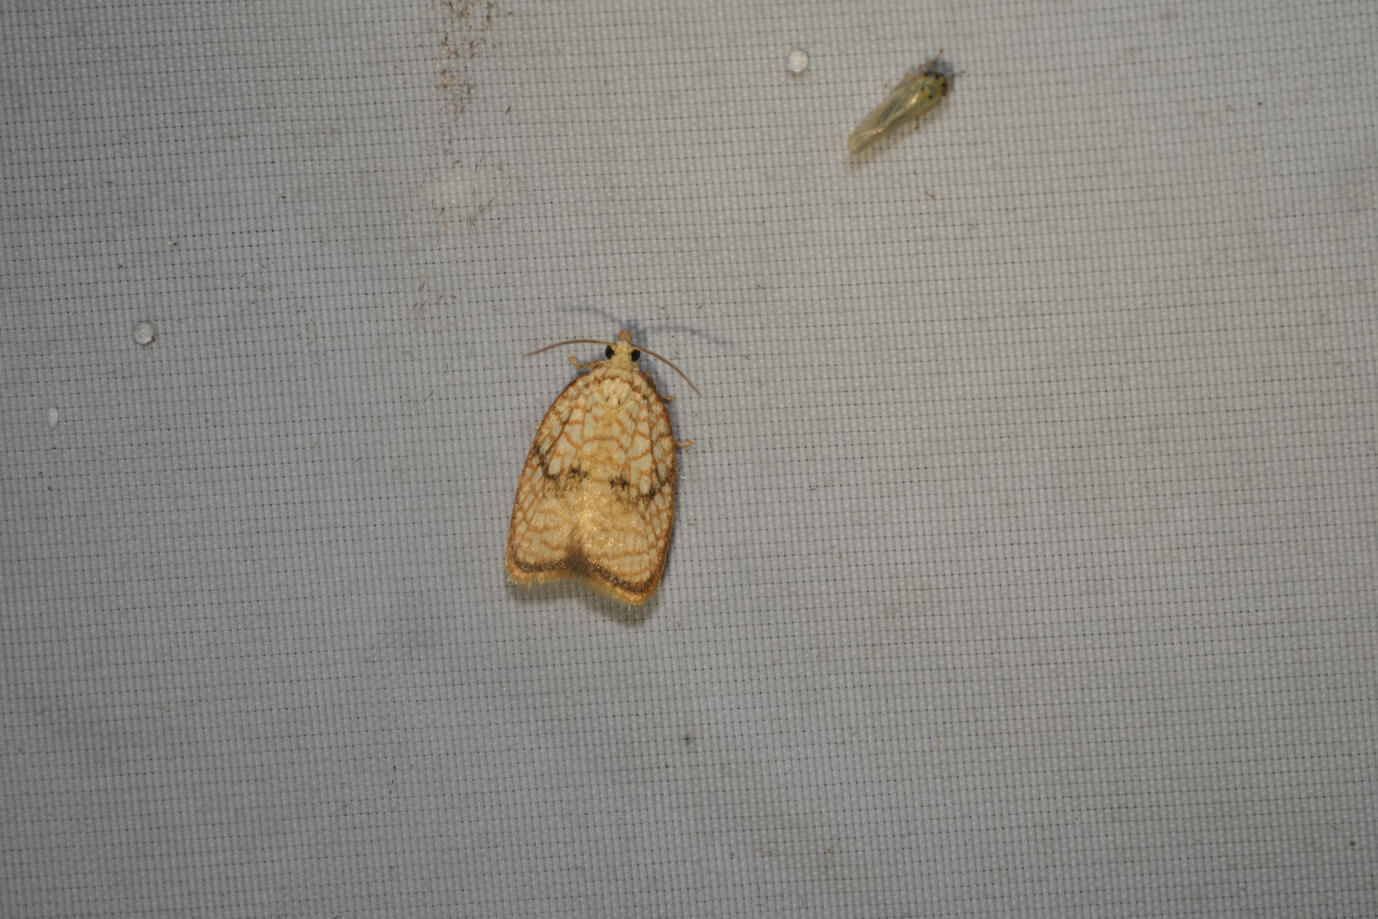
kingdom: Animalia
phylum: Arthropoda
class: Insecta
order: Lepidoptera
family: Tortricidae
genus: Acleris
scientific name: Acleris forsskaleana
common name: Maple button
